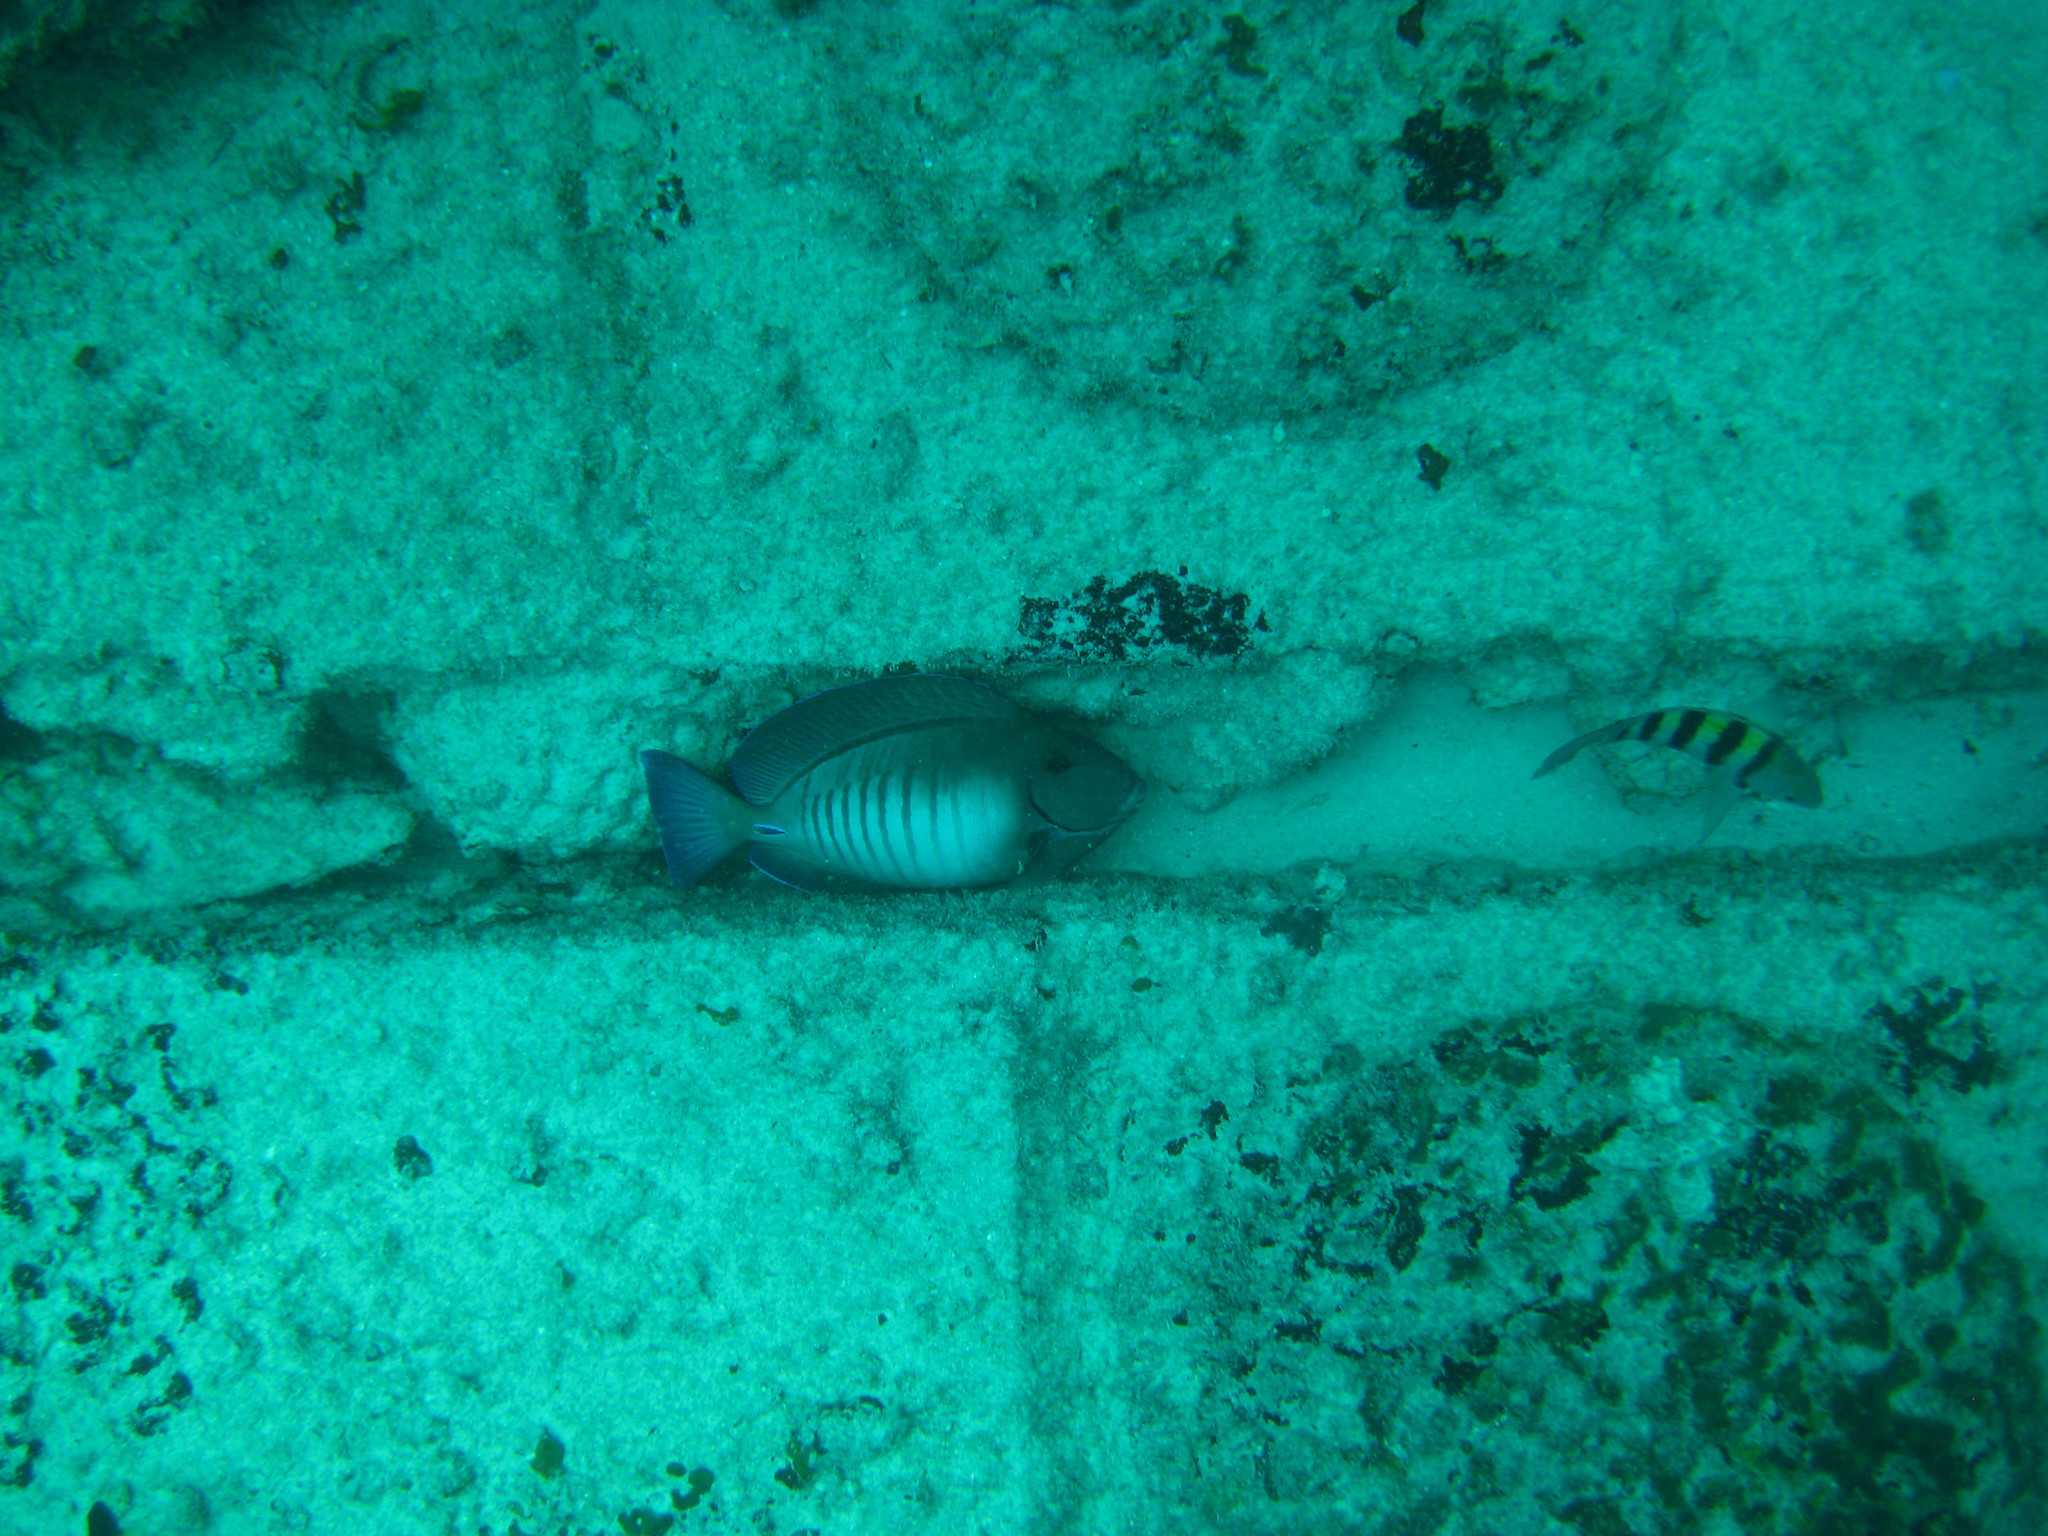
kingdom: Animalia
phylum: Chordata
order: Perciformes
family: Acanthuridae
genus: Acanthurus
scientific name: Acanthurus chirurgus
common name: Doctorfish
